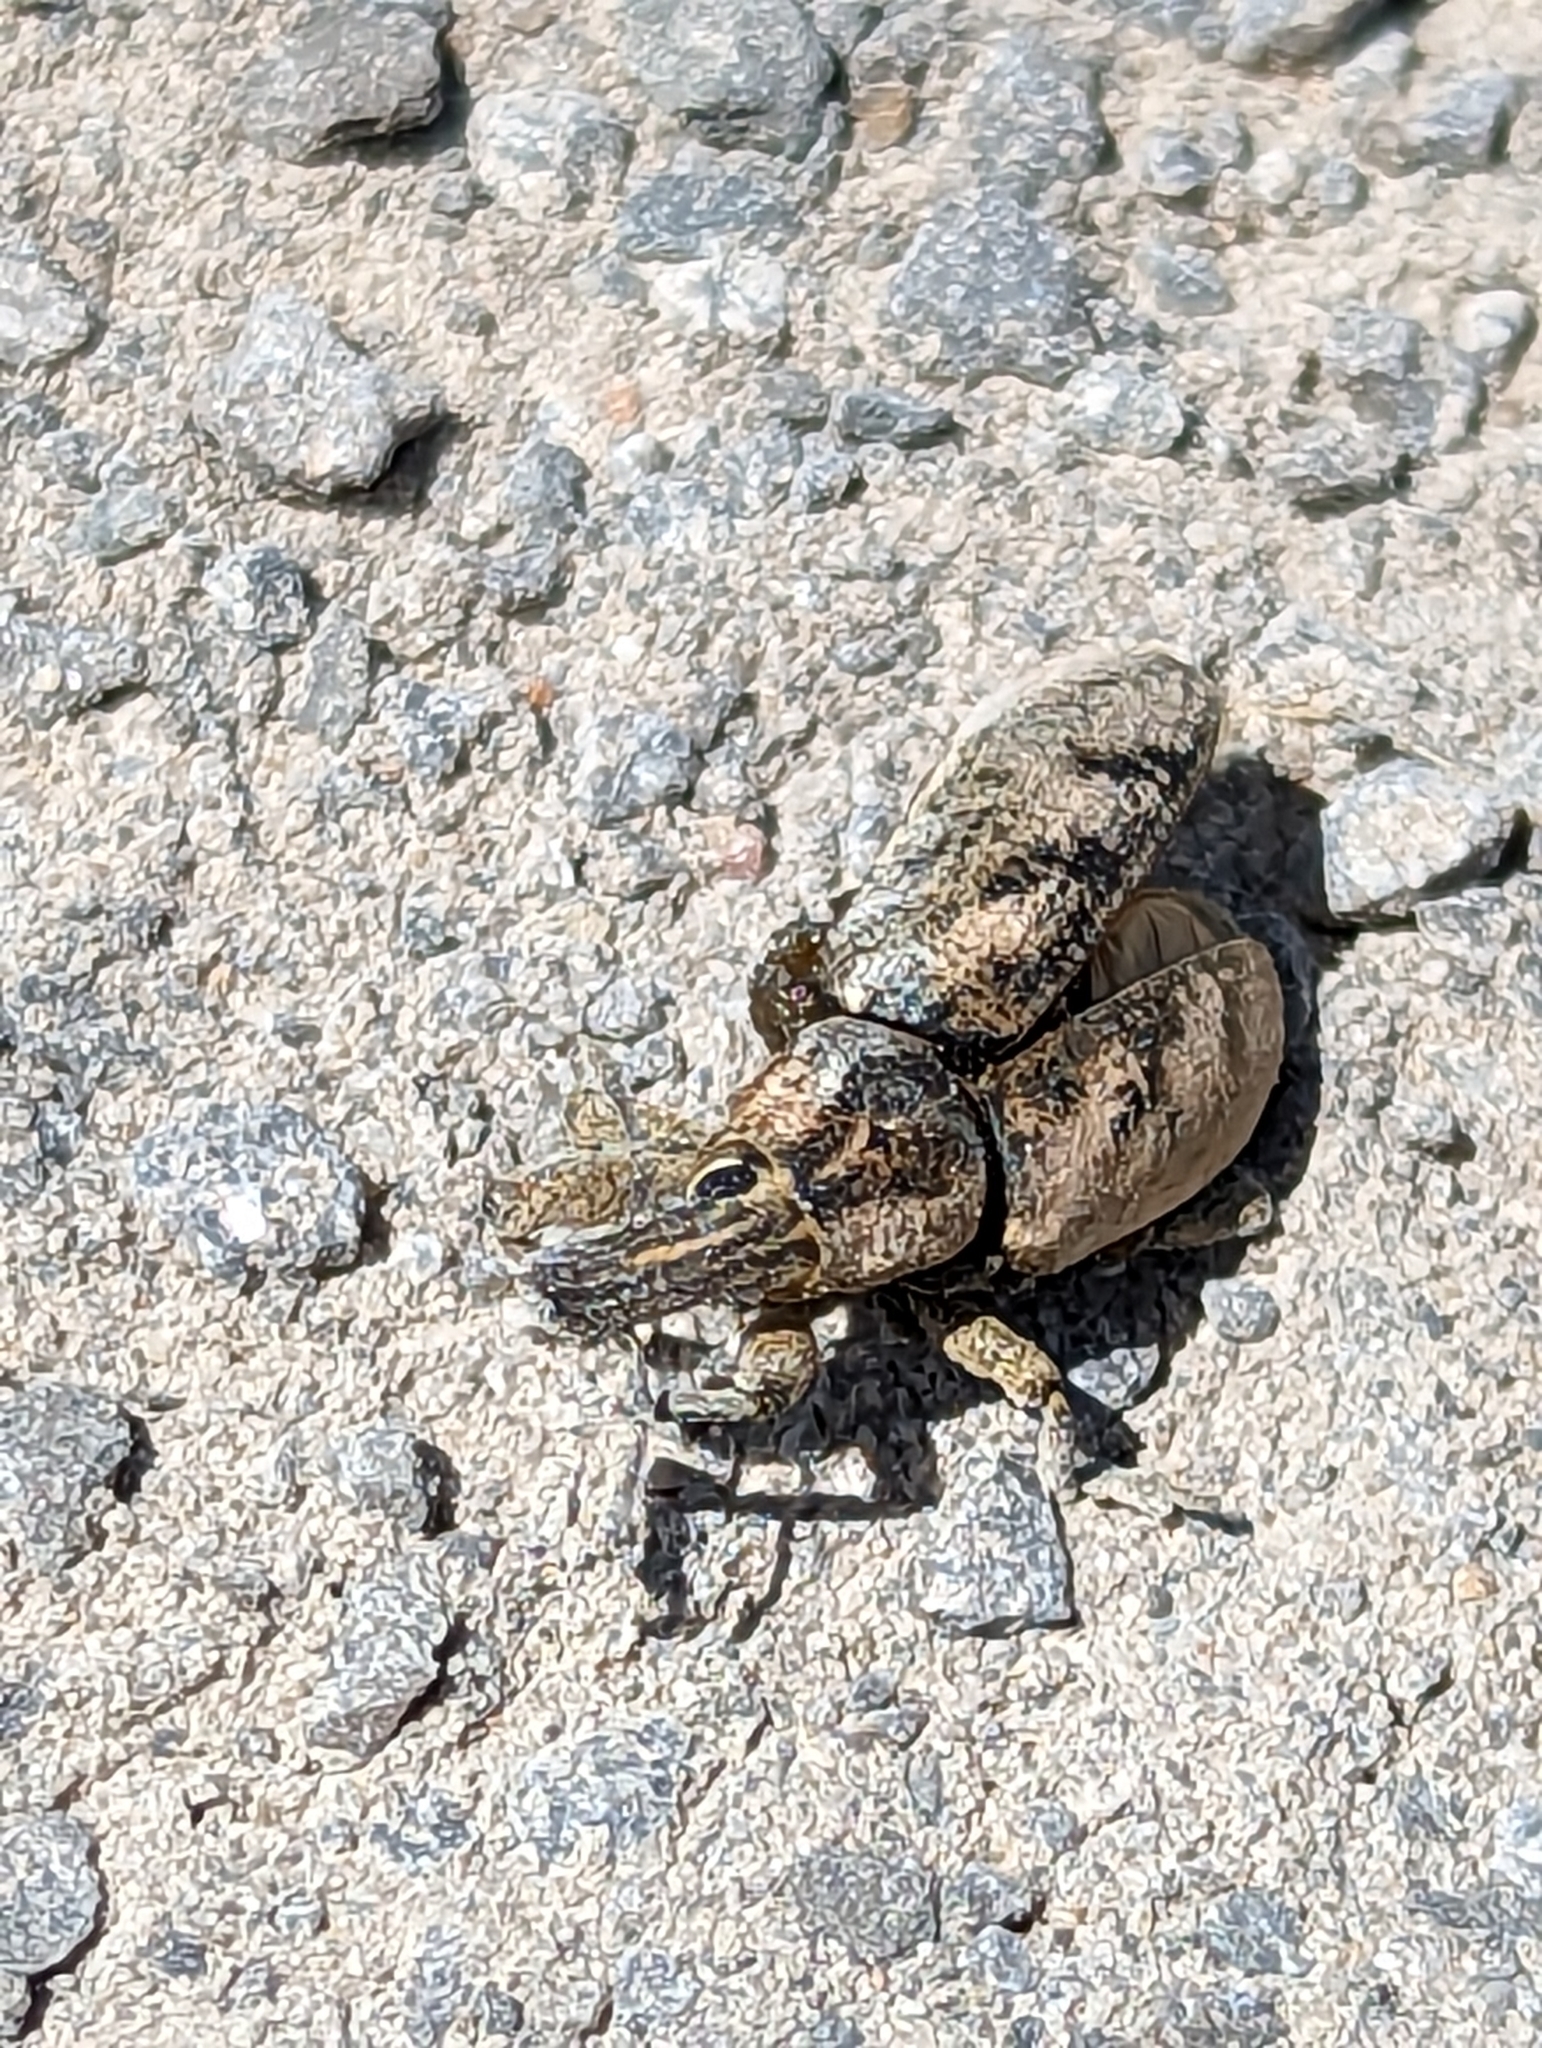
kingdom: Animalia
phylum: Arthropoda
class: Insecta
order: Coleoptera
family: Curculionidae
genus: Cleonis
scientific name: Cleonis pigra
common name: Large thistle weevil
